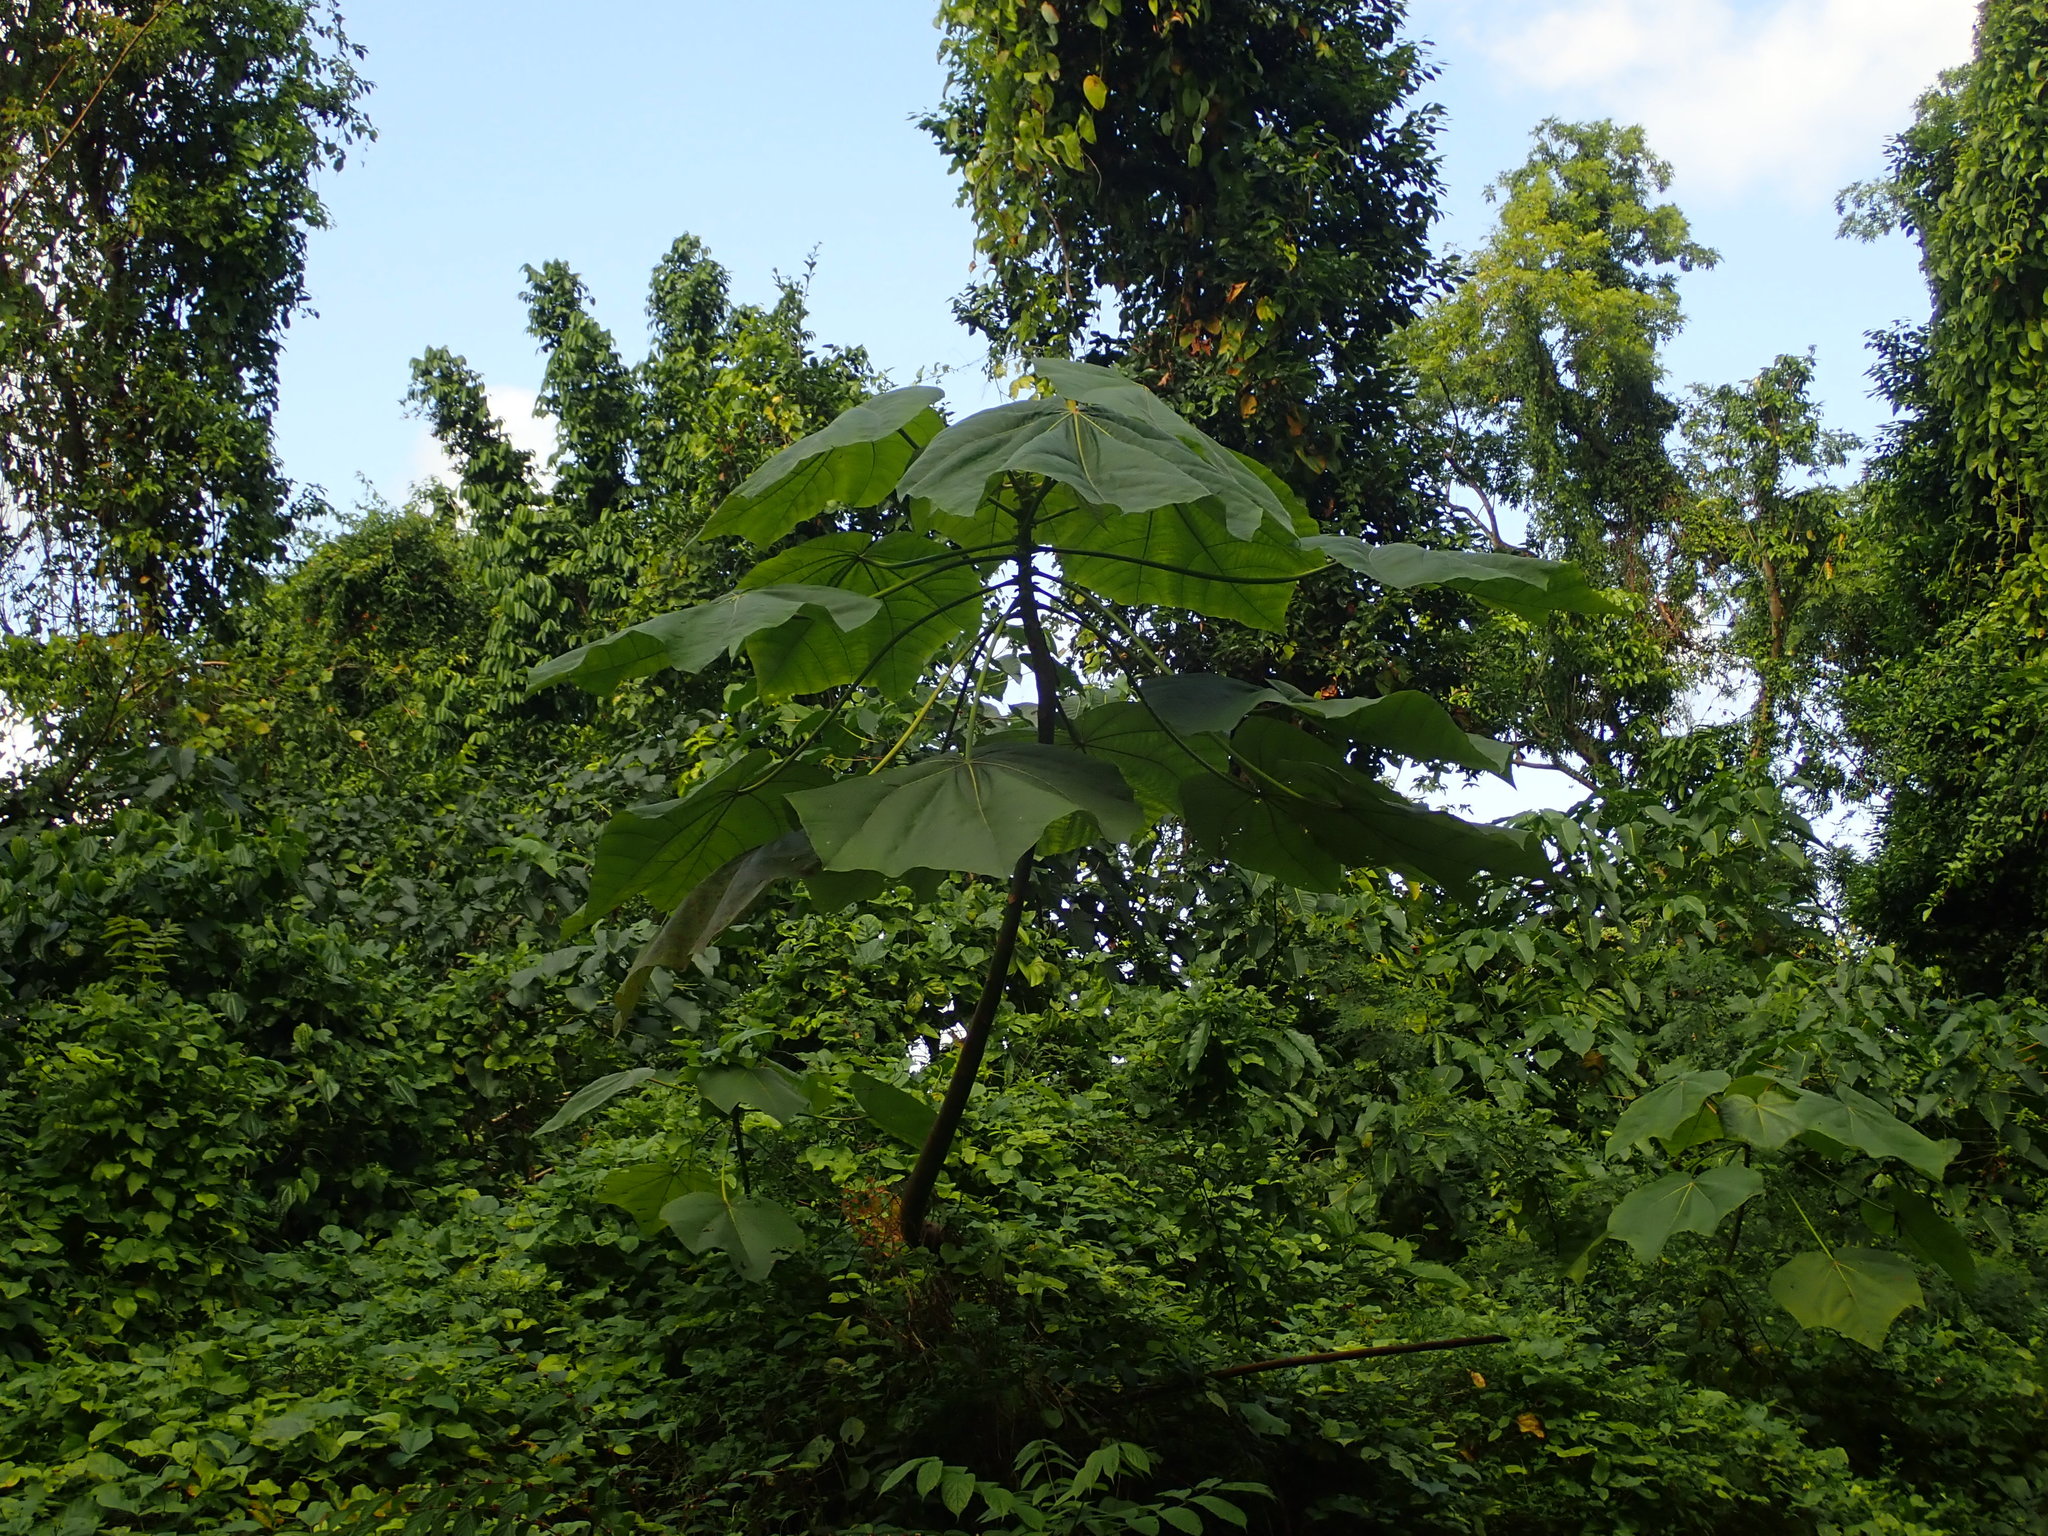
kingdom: Plantae
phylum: Tracheophyta
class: Magnoliopsida
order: Malvales
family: Malvaceae
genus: Ochroma
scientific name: Ochroma pyramidale
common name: Balsa
